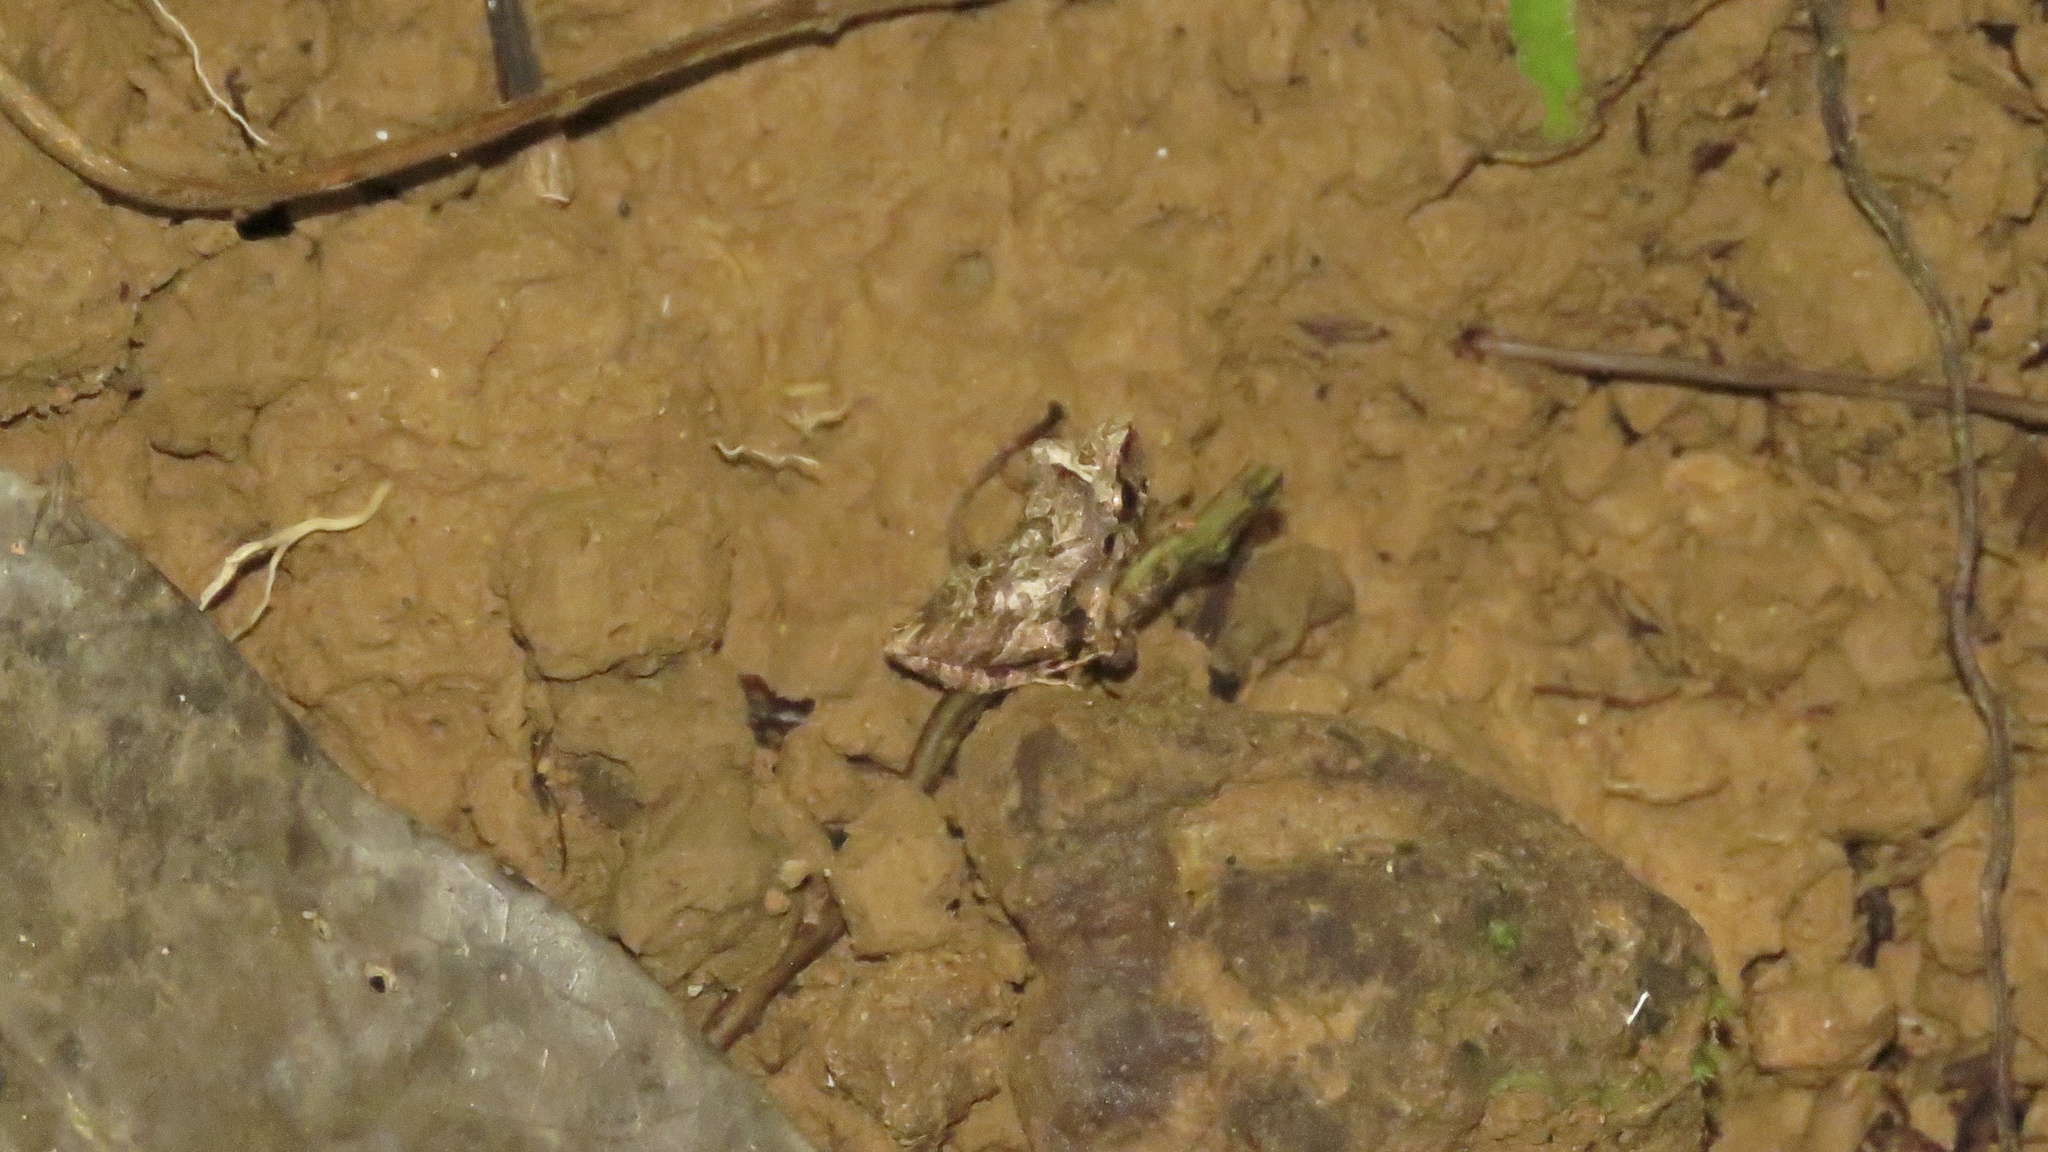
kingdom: Animalia
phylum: Chordata
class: Amphibia
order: Anura
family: Craugastoridae
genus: Pristimantis
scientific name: Pristimantis ridens
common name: Rio san juan robber frog
